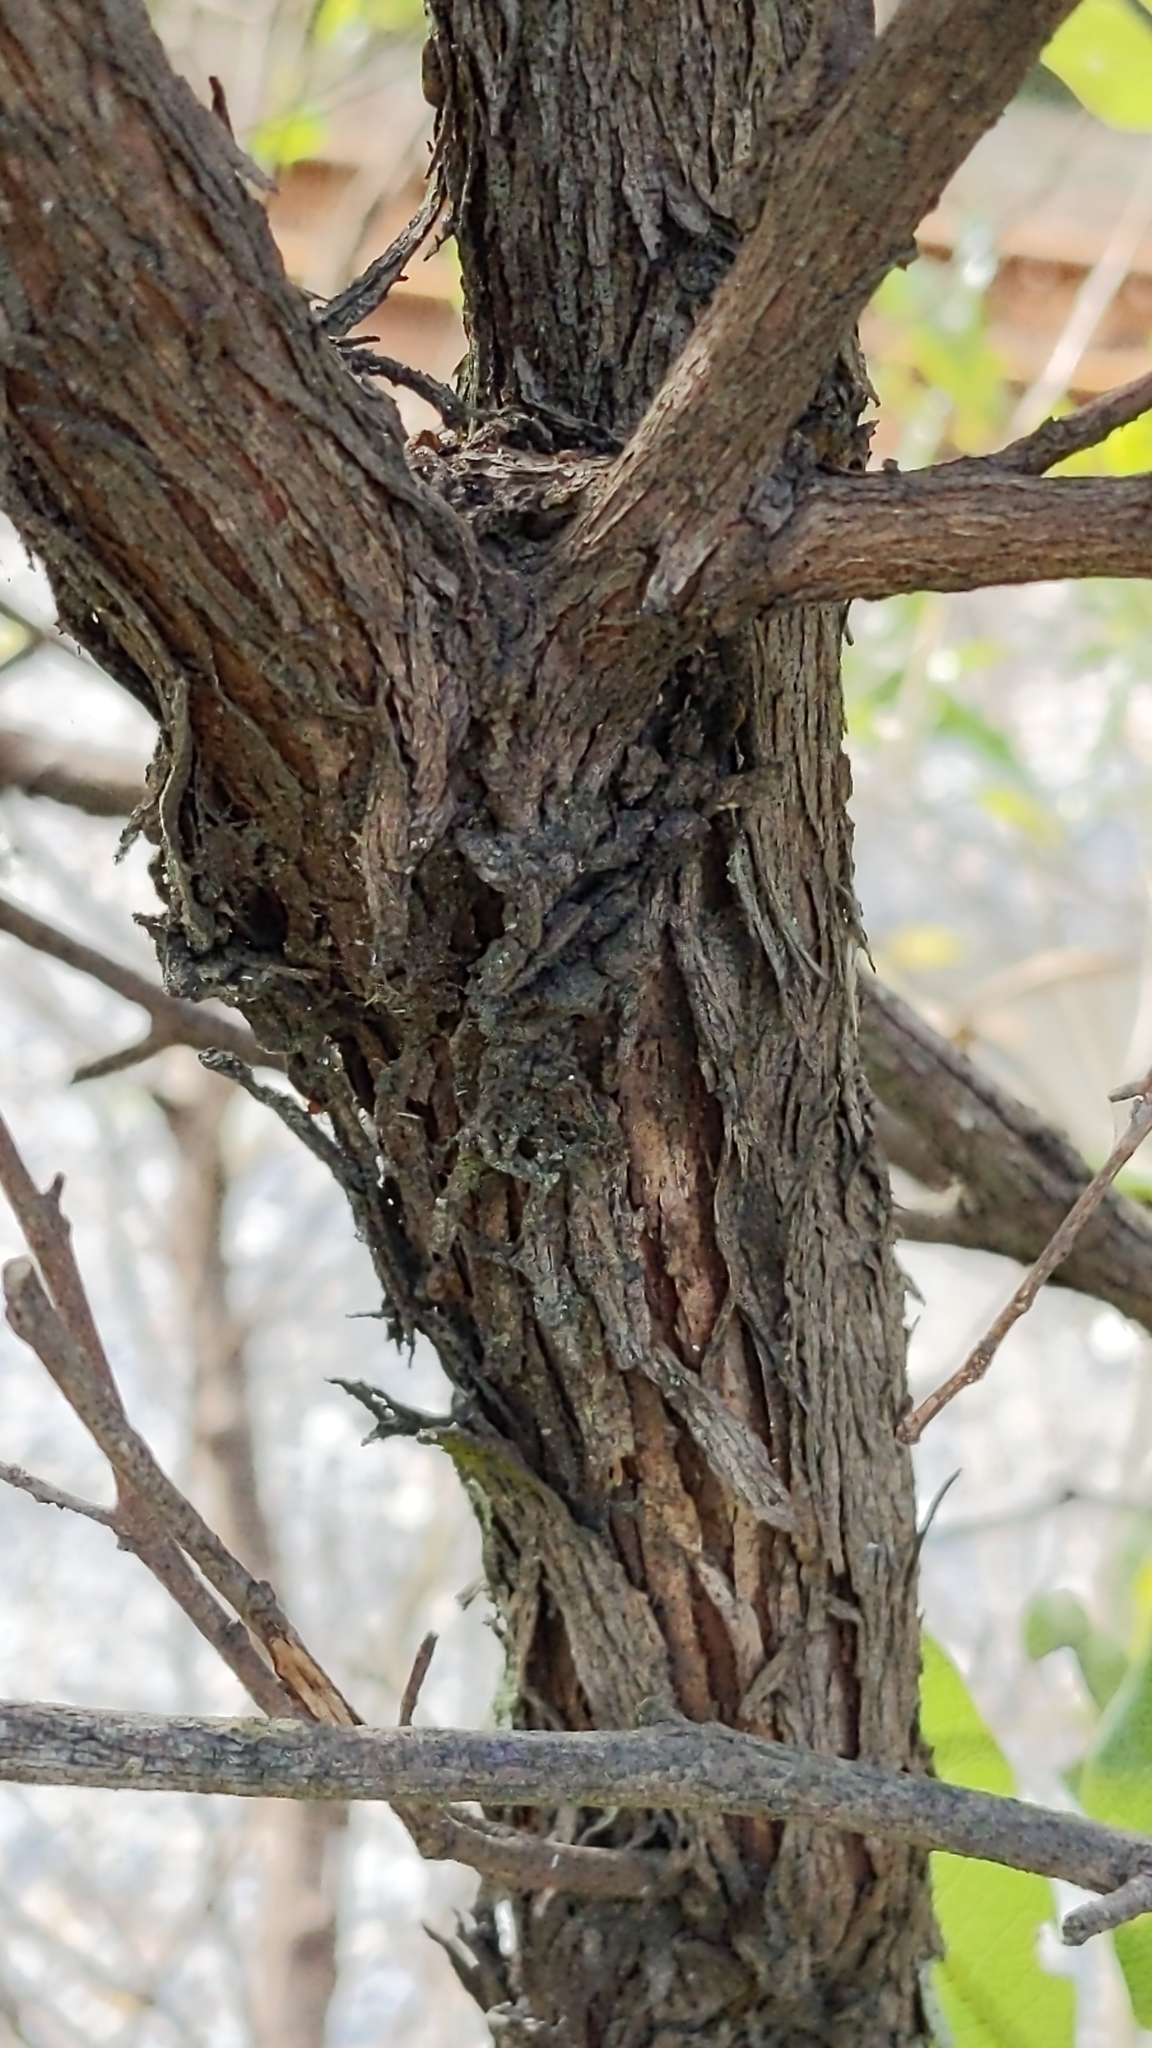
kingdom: Plantae
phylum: Tracheophyta
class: Magnoliopsida
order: Sapindales
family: Sapindaceae
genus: Dodonaea
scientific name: Dodonaea viscosa
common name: Hopbush
